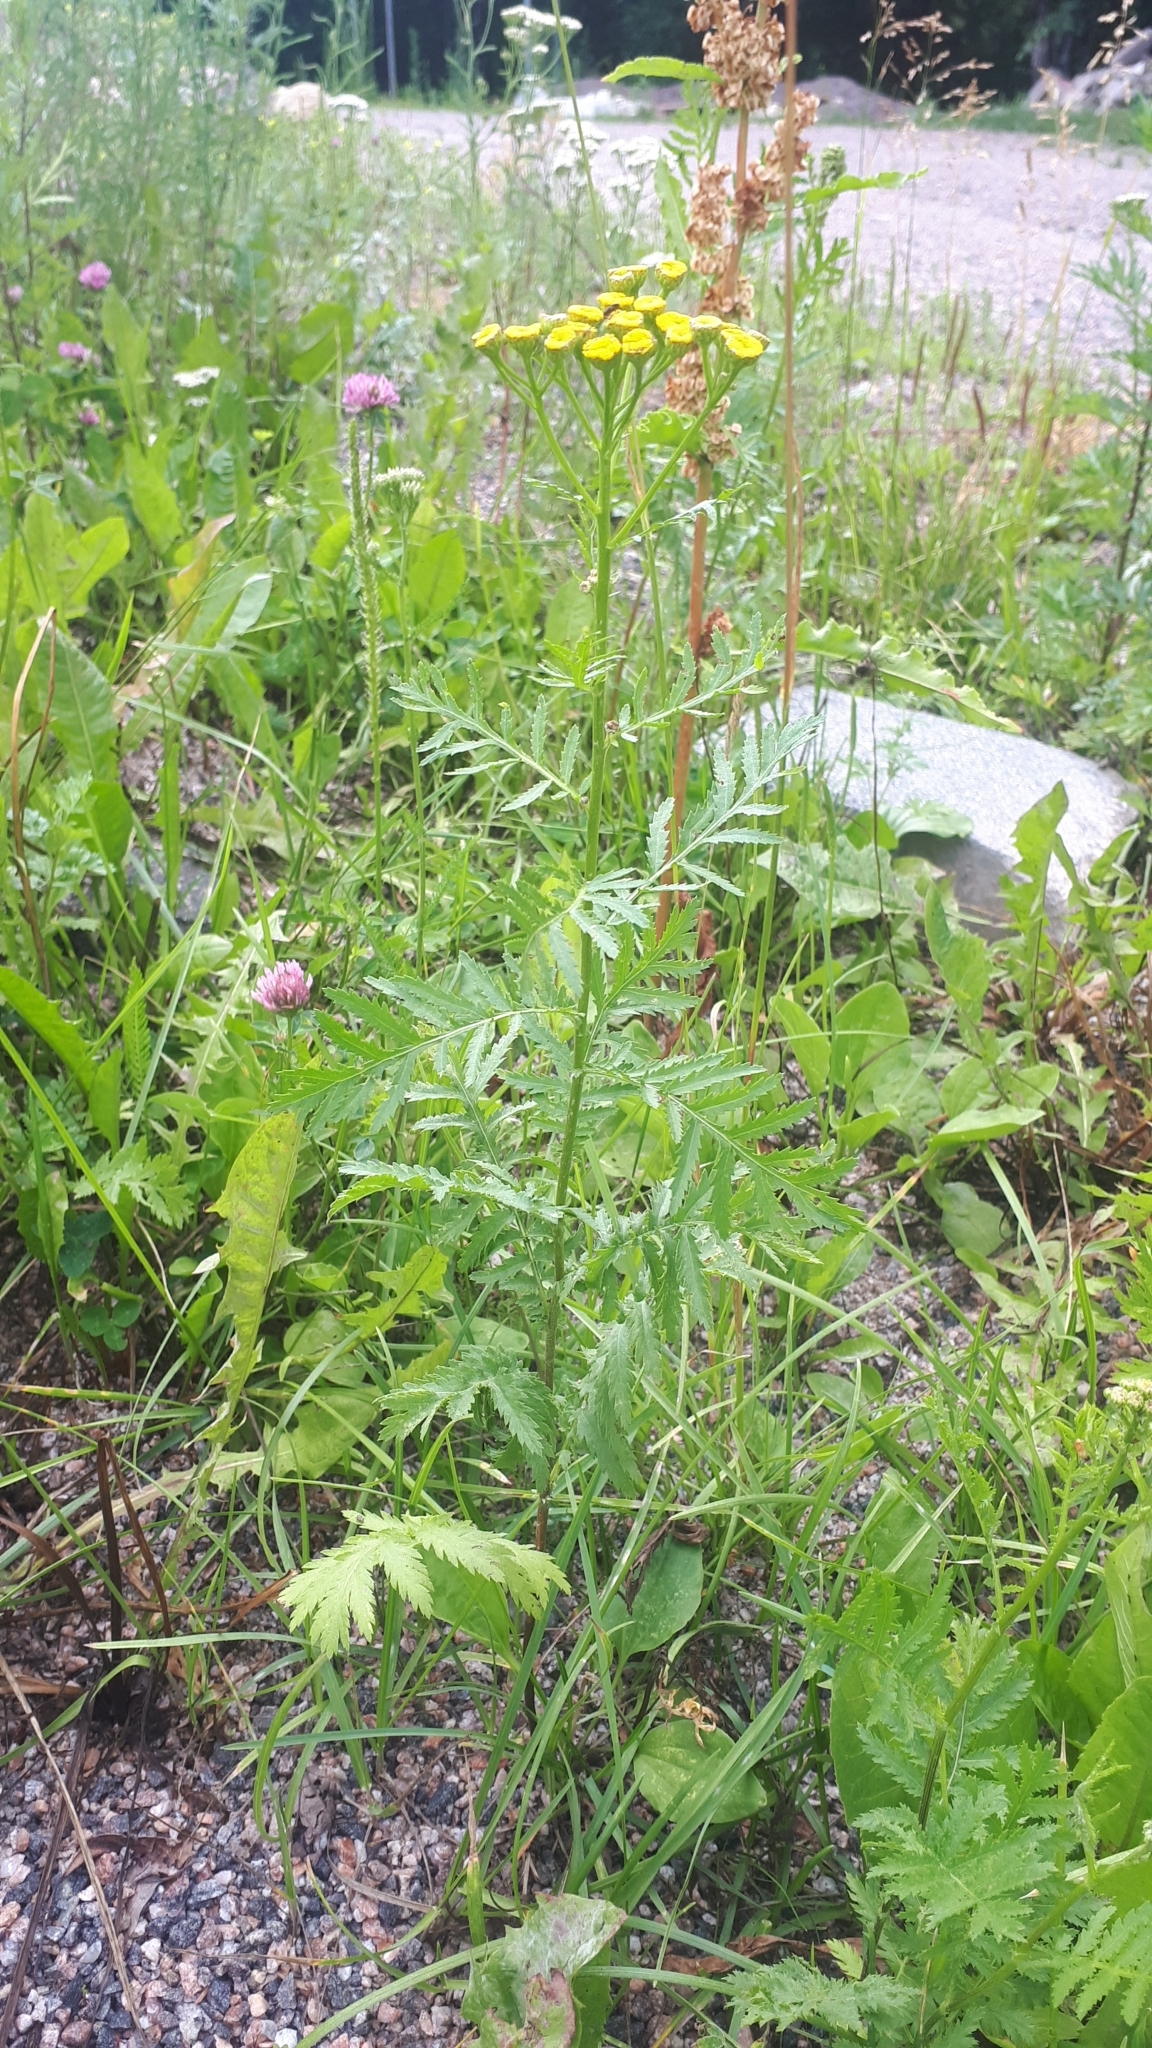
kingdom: Plantae
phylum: Tracheophyta
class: Magnoliopsida
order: Asterales
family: Asteraceae
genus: Tanacetum
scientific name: Tanacetum vulgare
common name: Common tansy
